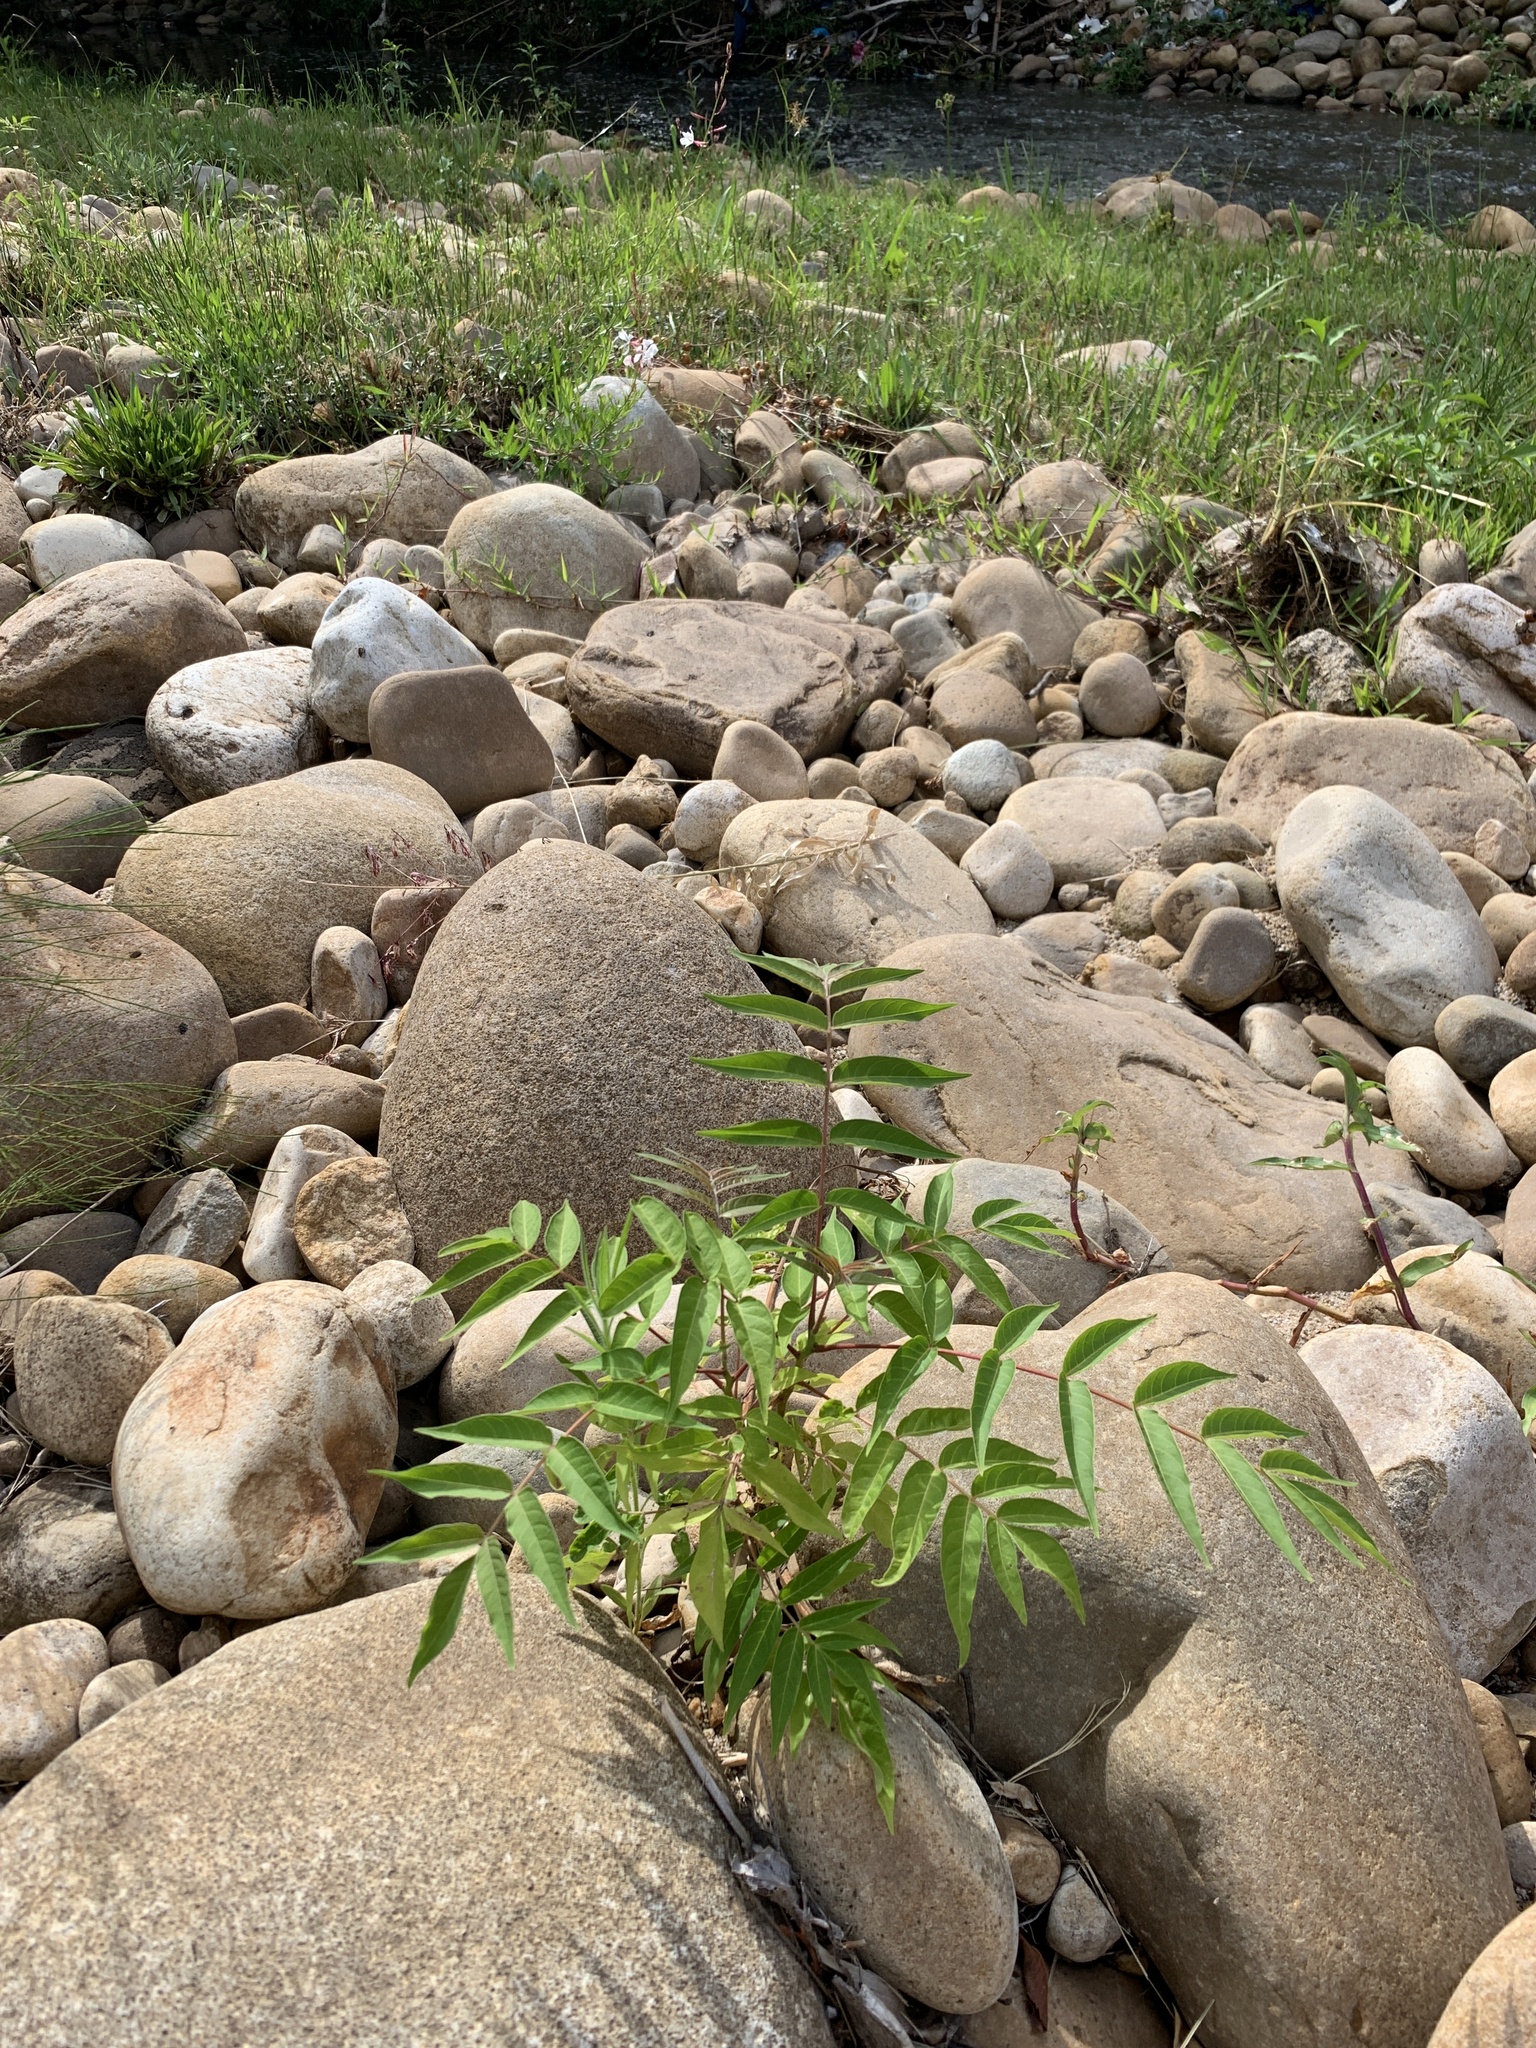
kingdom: Plantae
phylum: Tracheophyta
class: Magnoliopsida
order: Sapindales
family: Simaroubaceae
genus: Ailanthus
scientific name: Ailanthus altissima
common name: Tree-of-heaven
